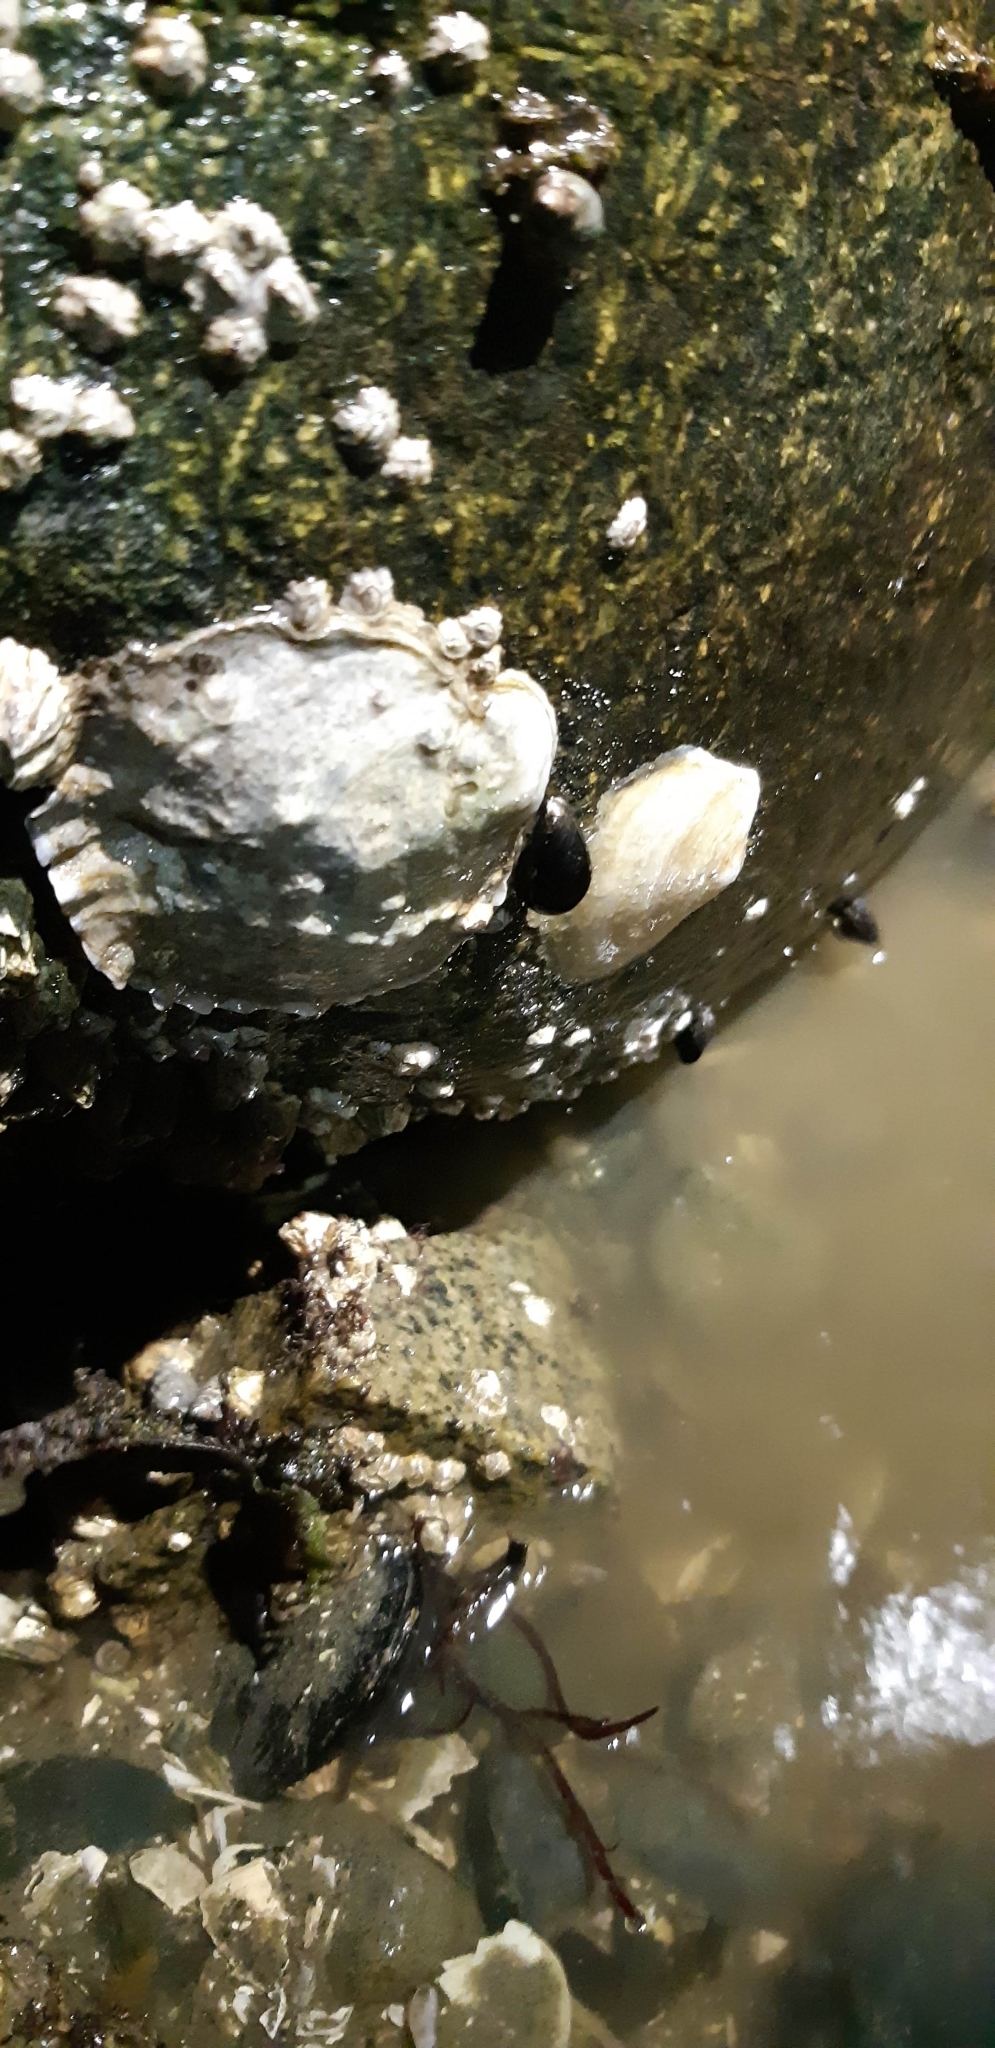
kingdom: Animalia
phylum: Mollusca
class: Bivalvia
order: Ostreida
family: Ostreidae
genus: Ostrea
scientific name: Ostrea lurida
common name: Olympia flat oyster
